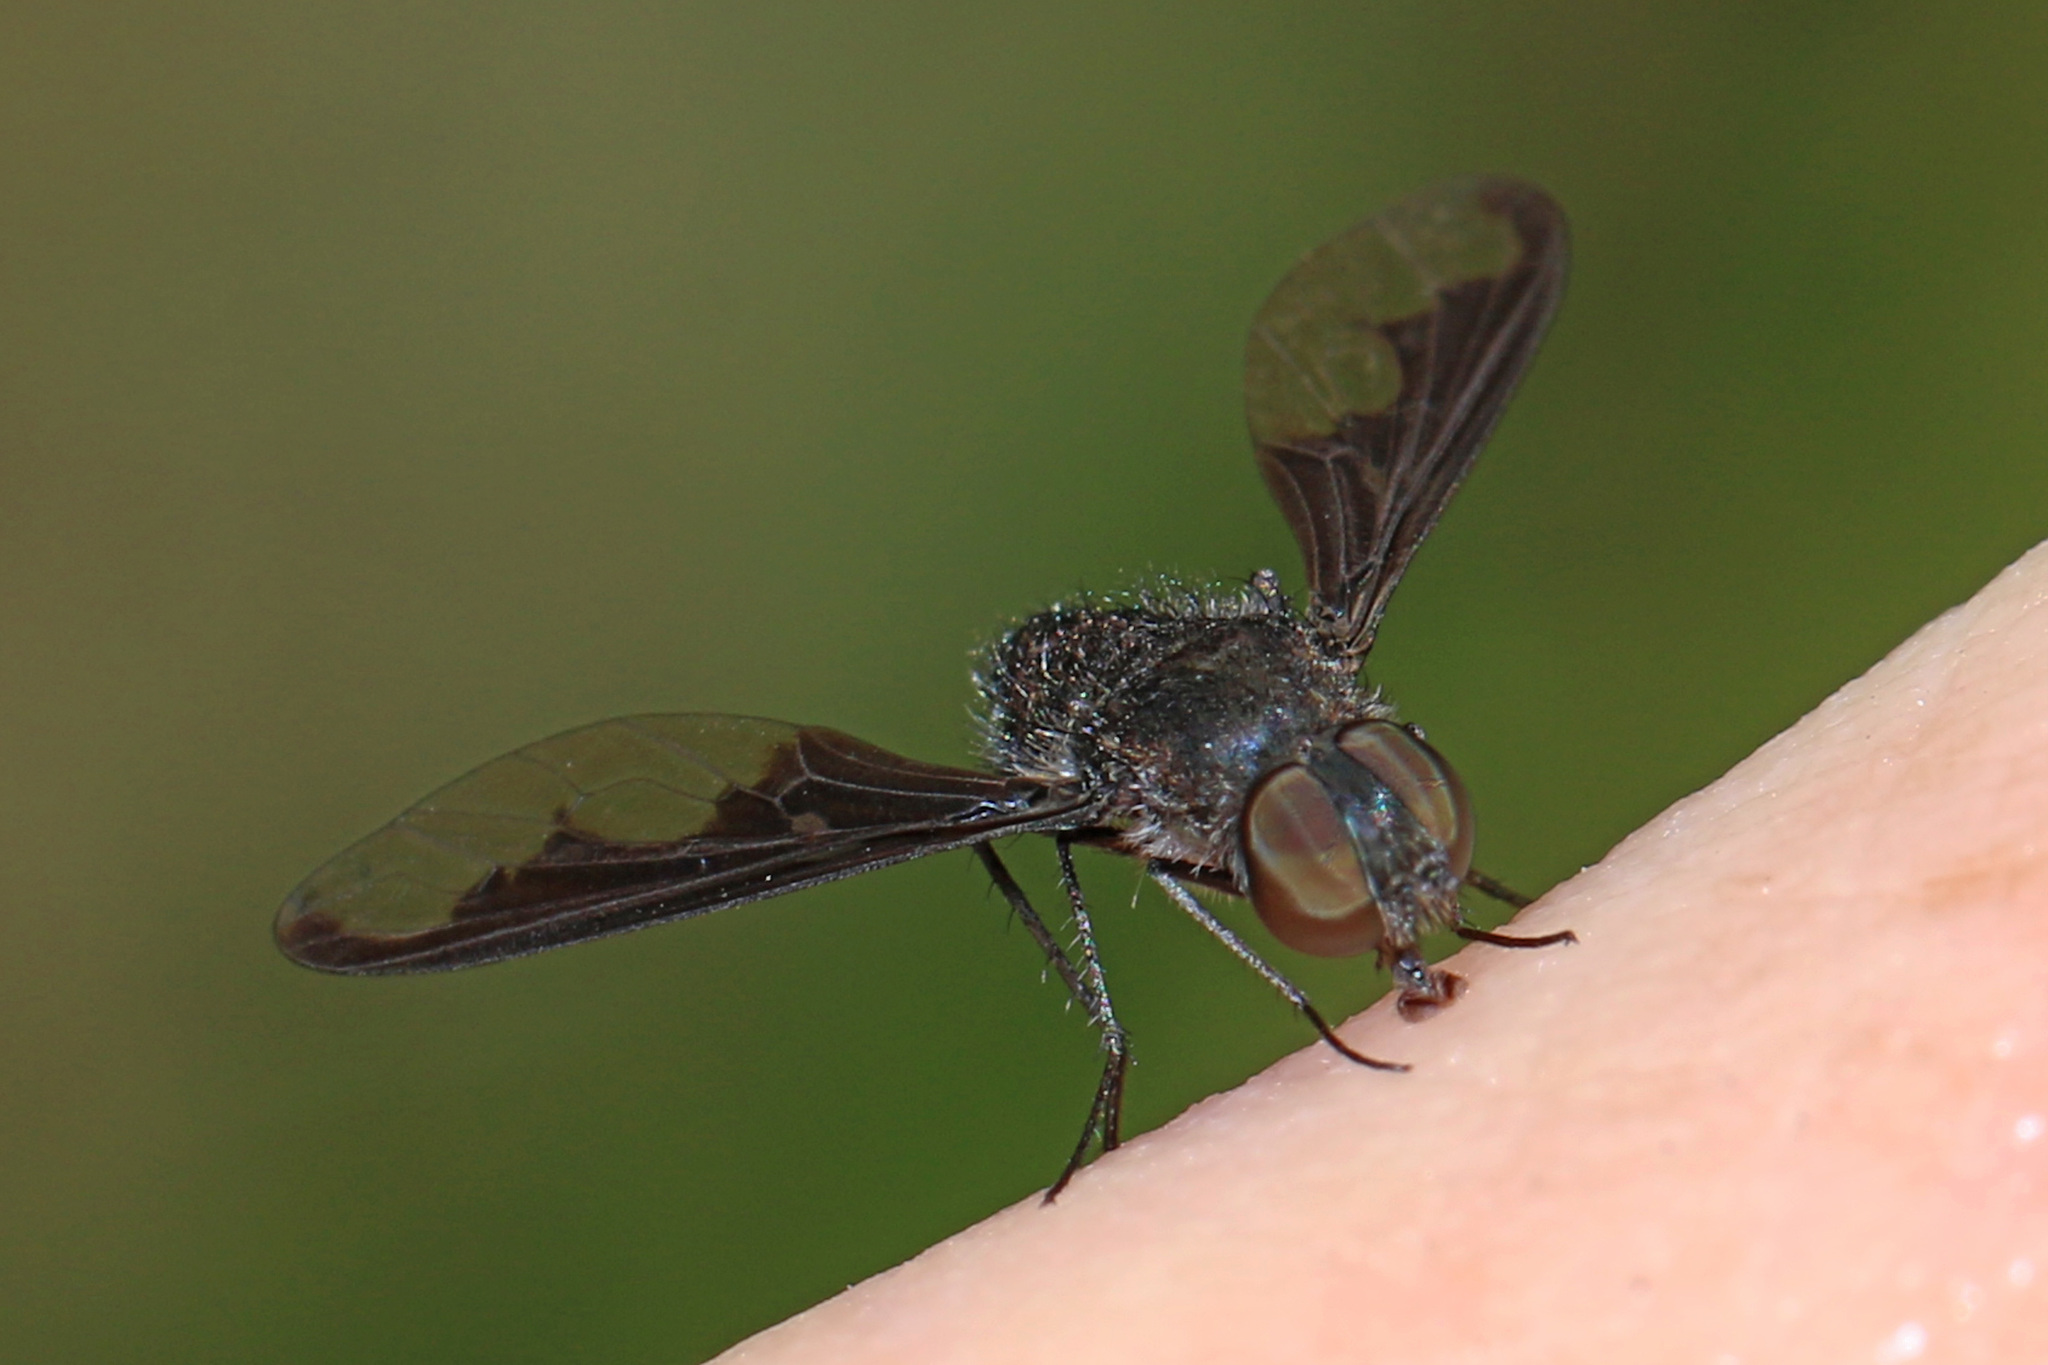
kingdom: Animalia
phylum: Arthropoda
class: Insecta
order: Diptera
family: Bombyliidae
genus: Anthrax
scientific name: Anthrax argyropygus
